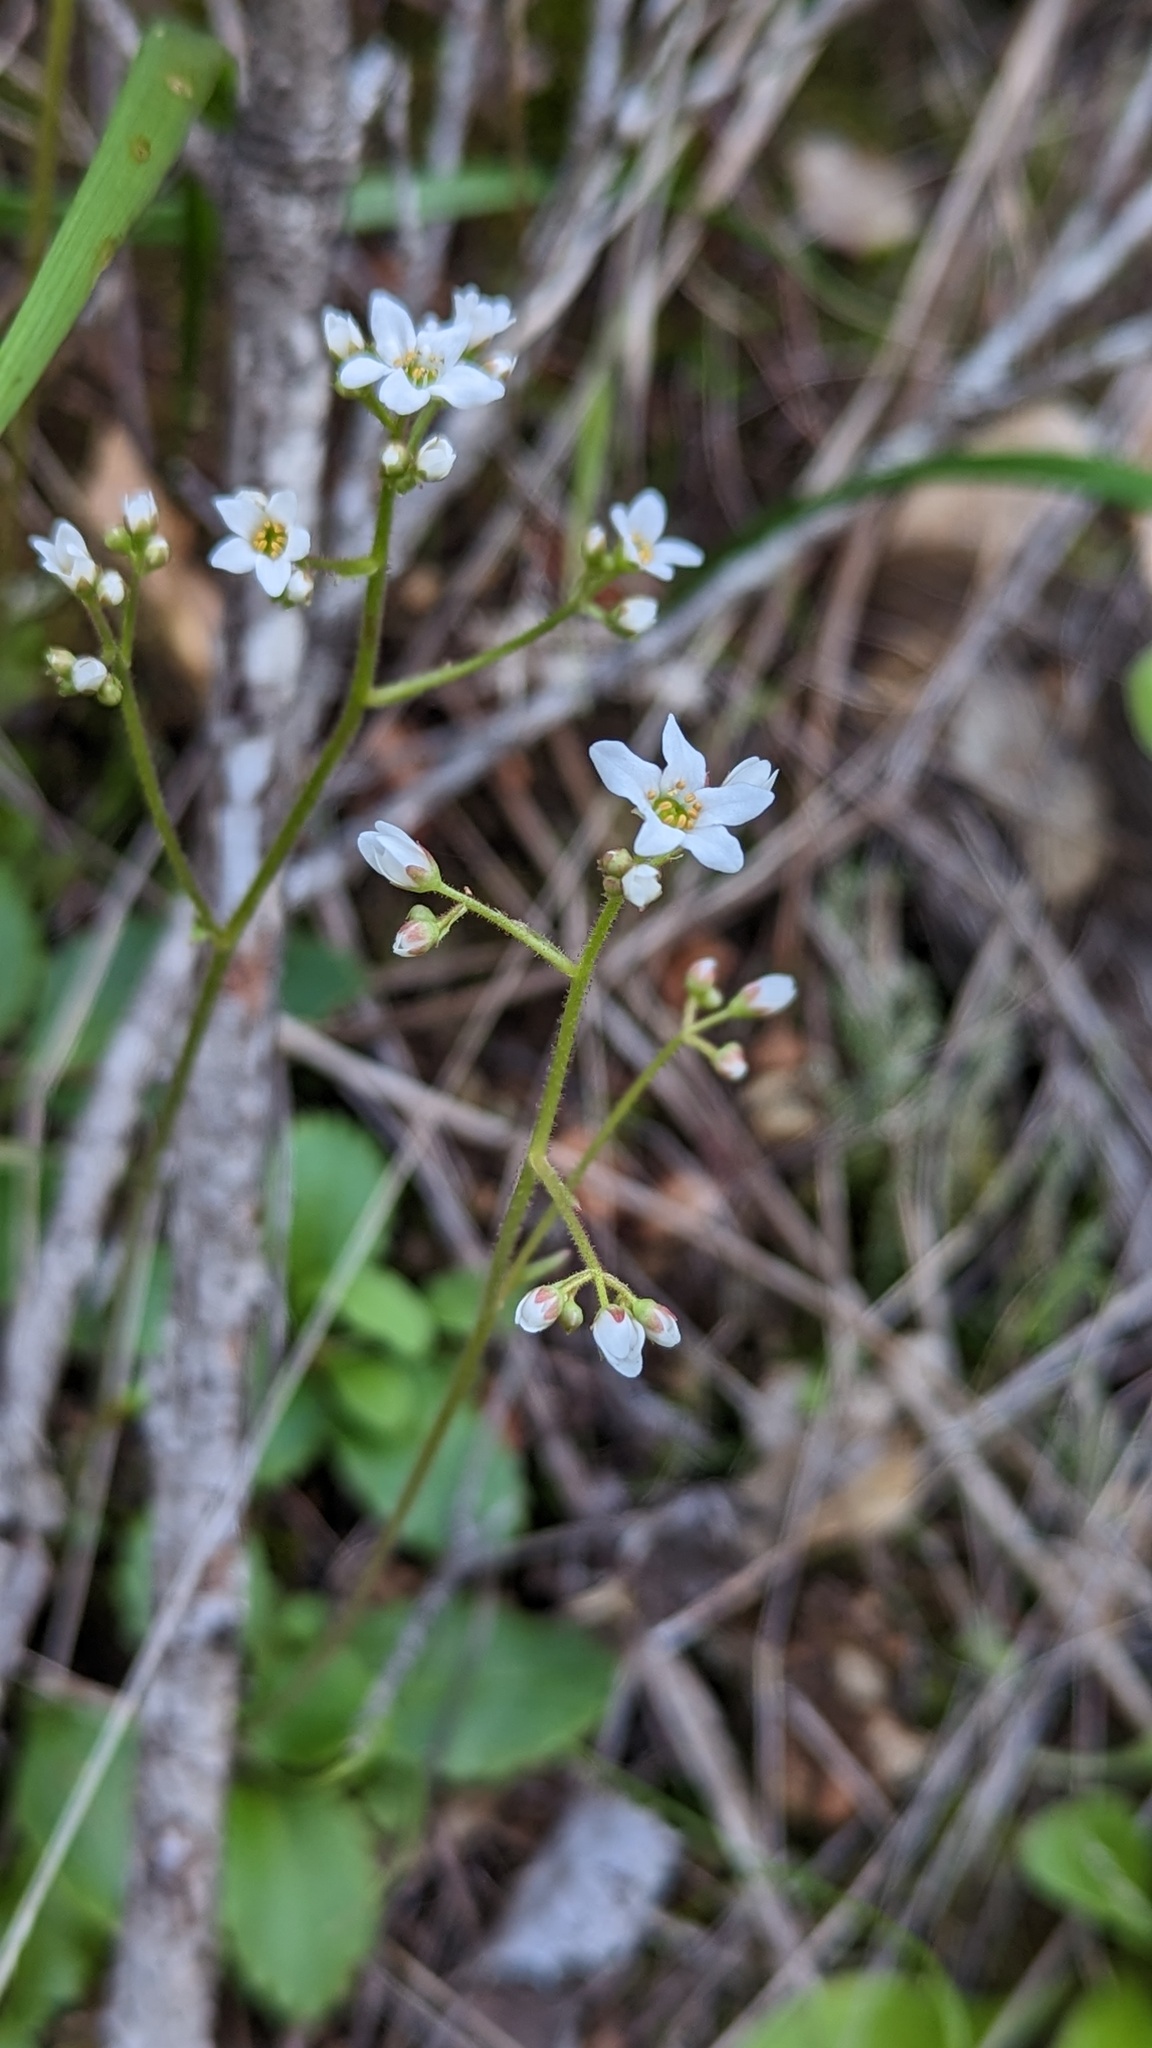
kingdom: Plantae
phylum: Tracheophyta
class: Magnoliopsida
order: Saxifragales
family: Saxifragaceae
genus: Micranthes
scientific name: Micranthes californica
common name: California saxifrage
